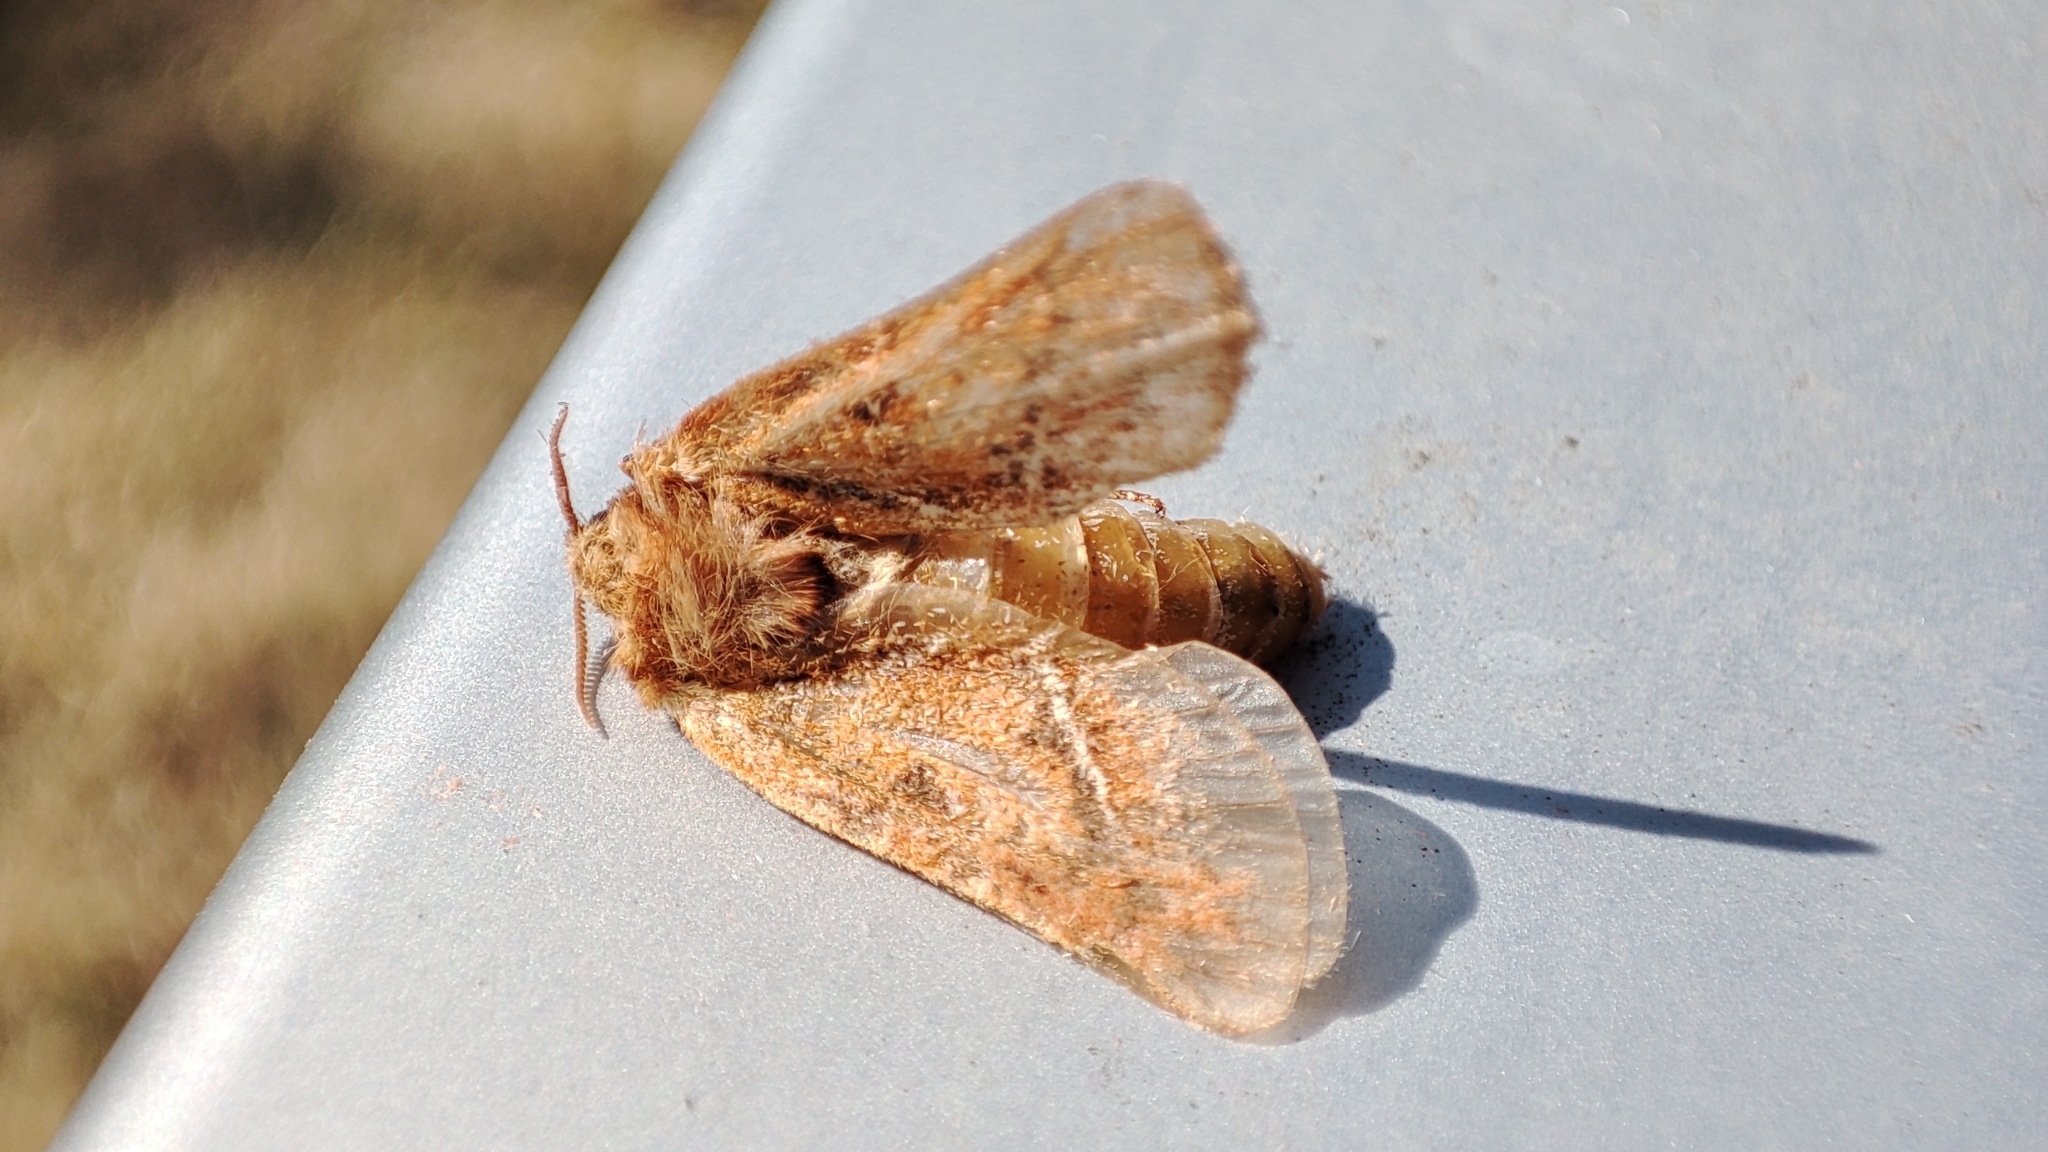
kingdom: Animalia
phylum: Arthropoda
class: Insecta
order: Lepidoptera
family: Hepialidae
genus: Triodia
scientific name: Triodia sylvina
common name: Orange swift
